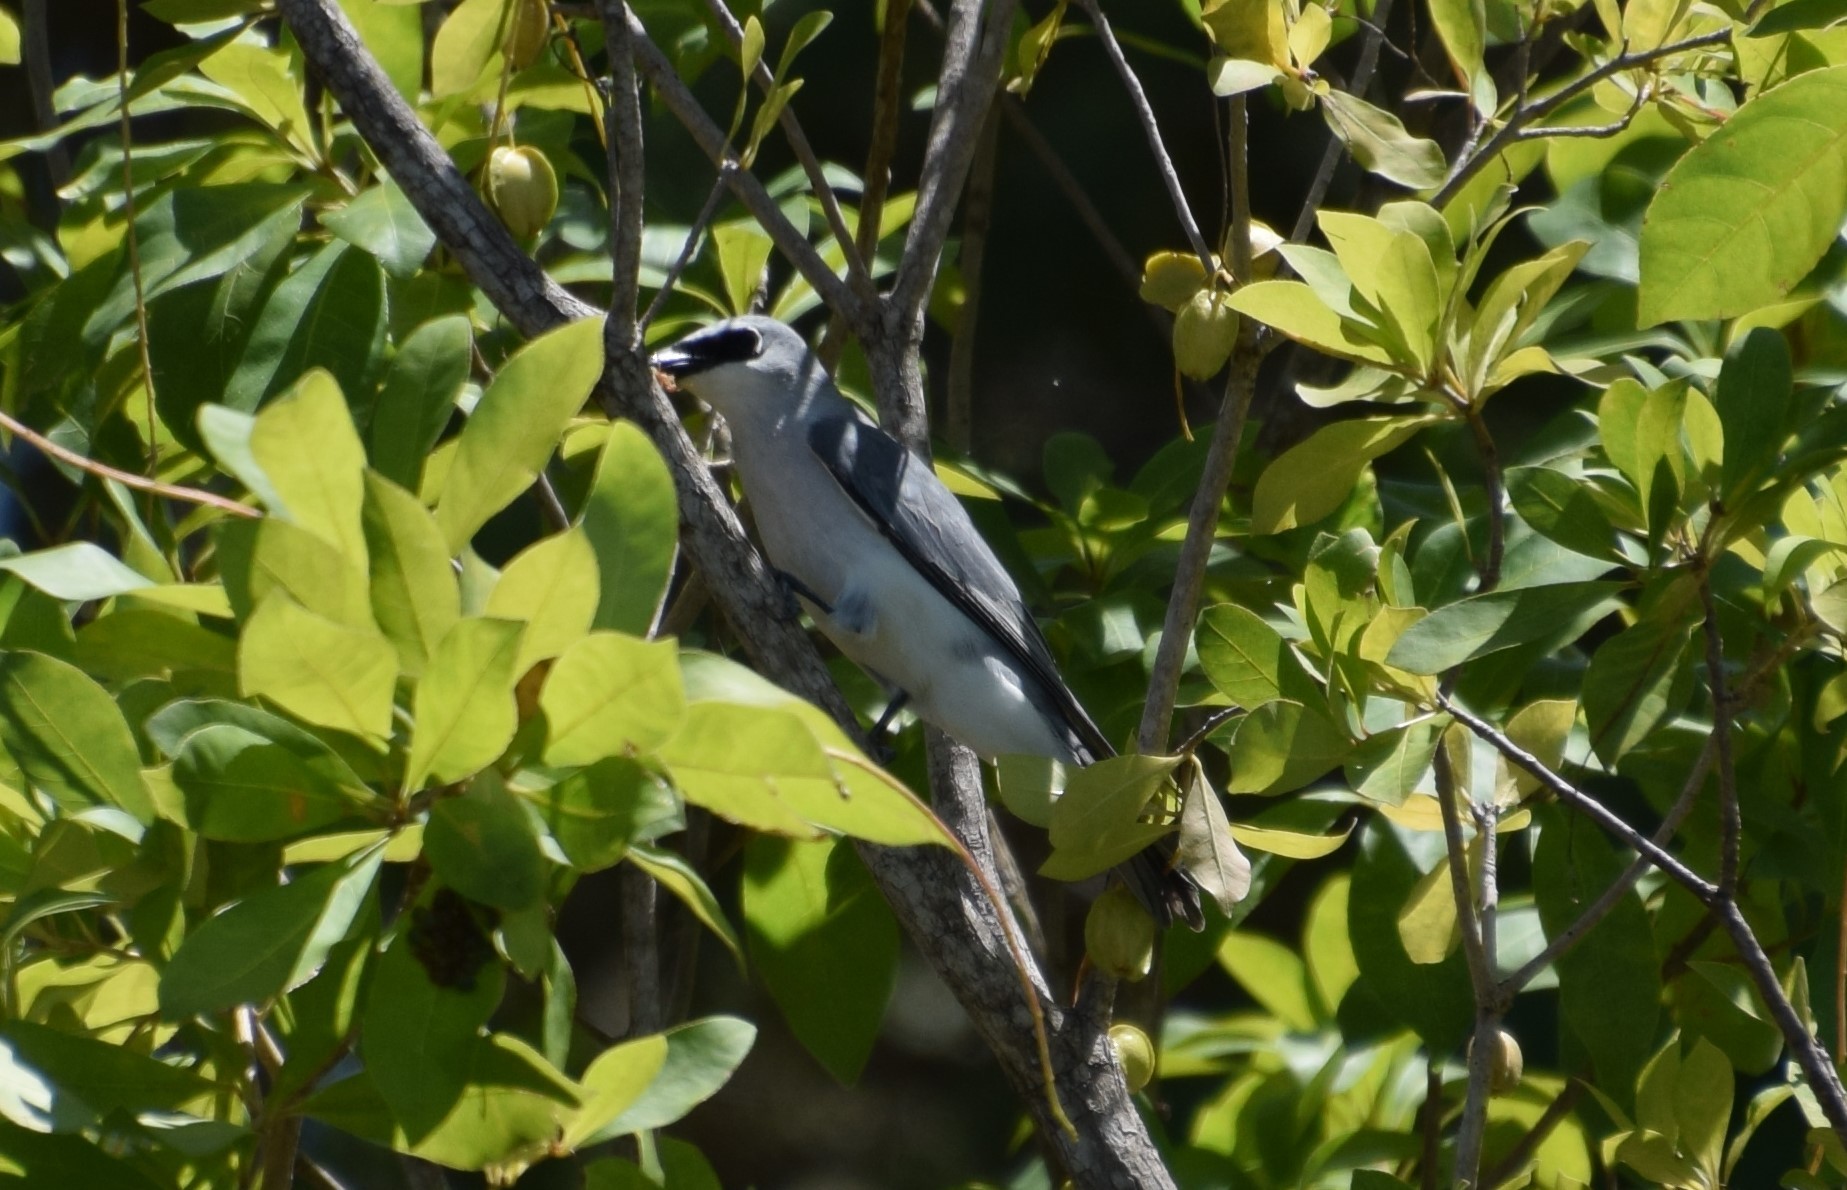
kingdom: Animalia
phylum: Chordata
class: Aves
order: Passeriformes
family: Campephagidae
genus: Coracina
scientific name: Coracina papuensis
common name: White-bellied cuckooshrike
